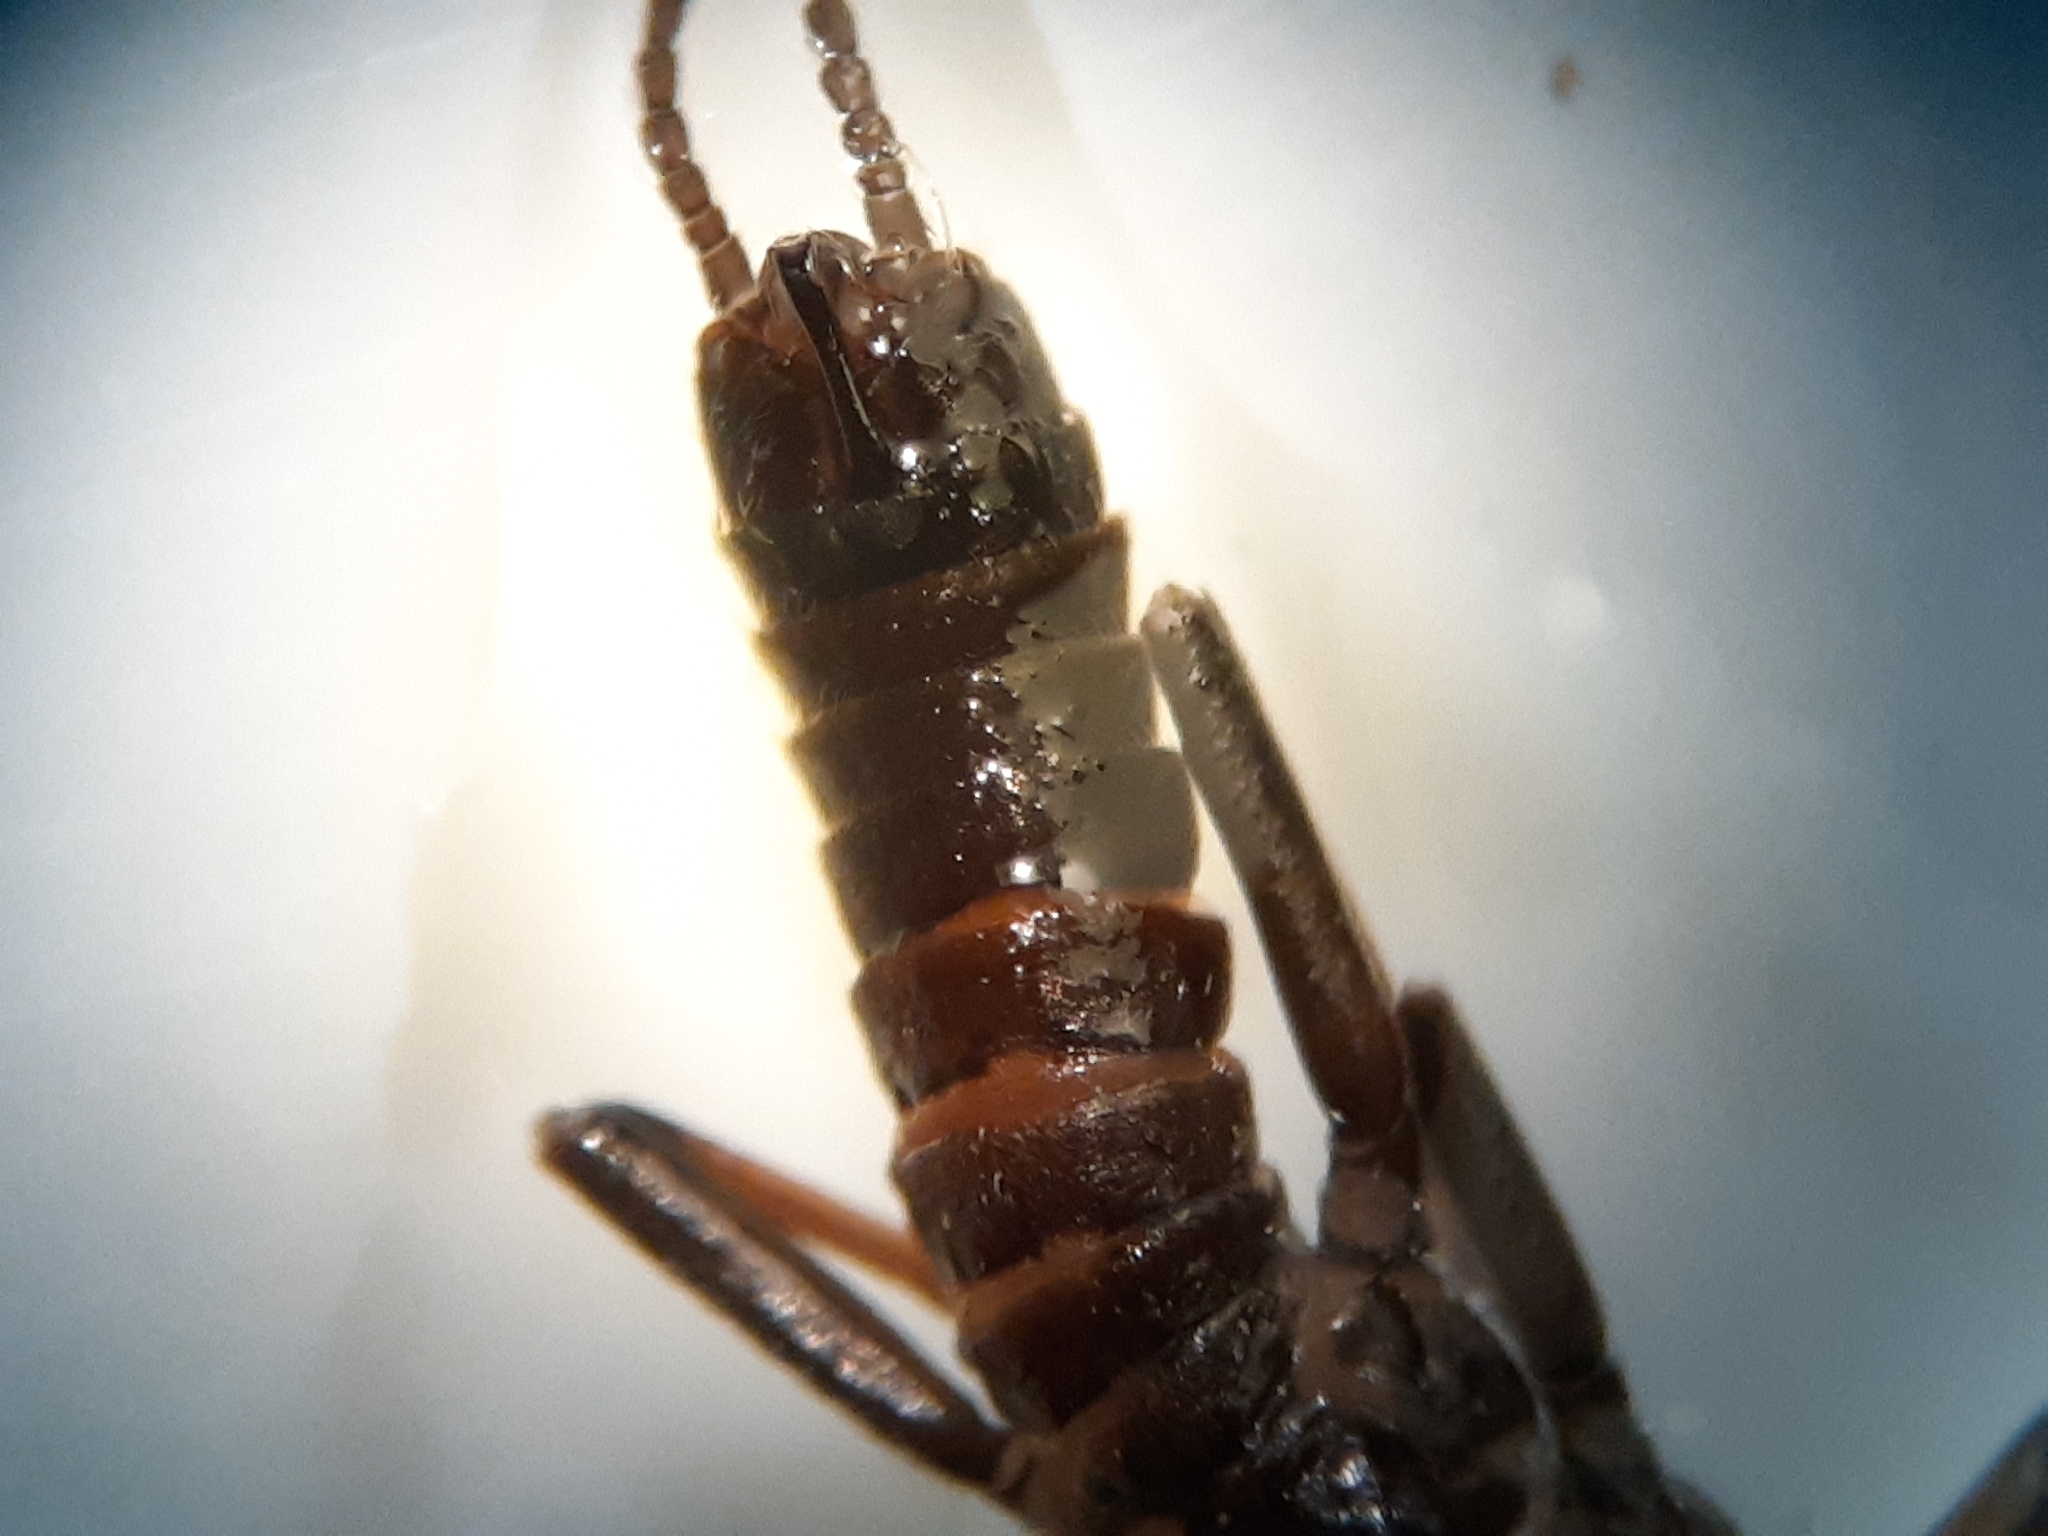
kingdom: Animalia
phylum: Arthropoda
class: Insecta
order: Plecoptera
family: Capniidae
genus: Allocapnia
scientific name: Allocapnia vivipara
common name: Shortwing snowfly
